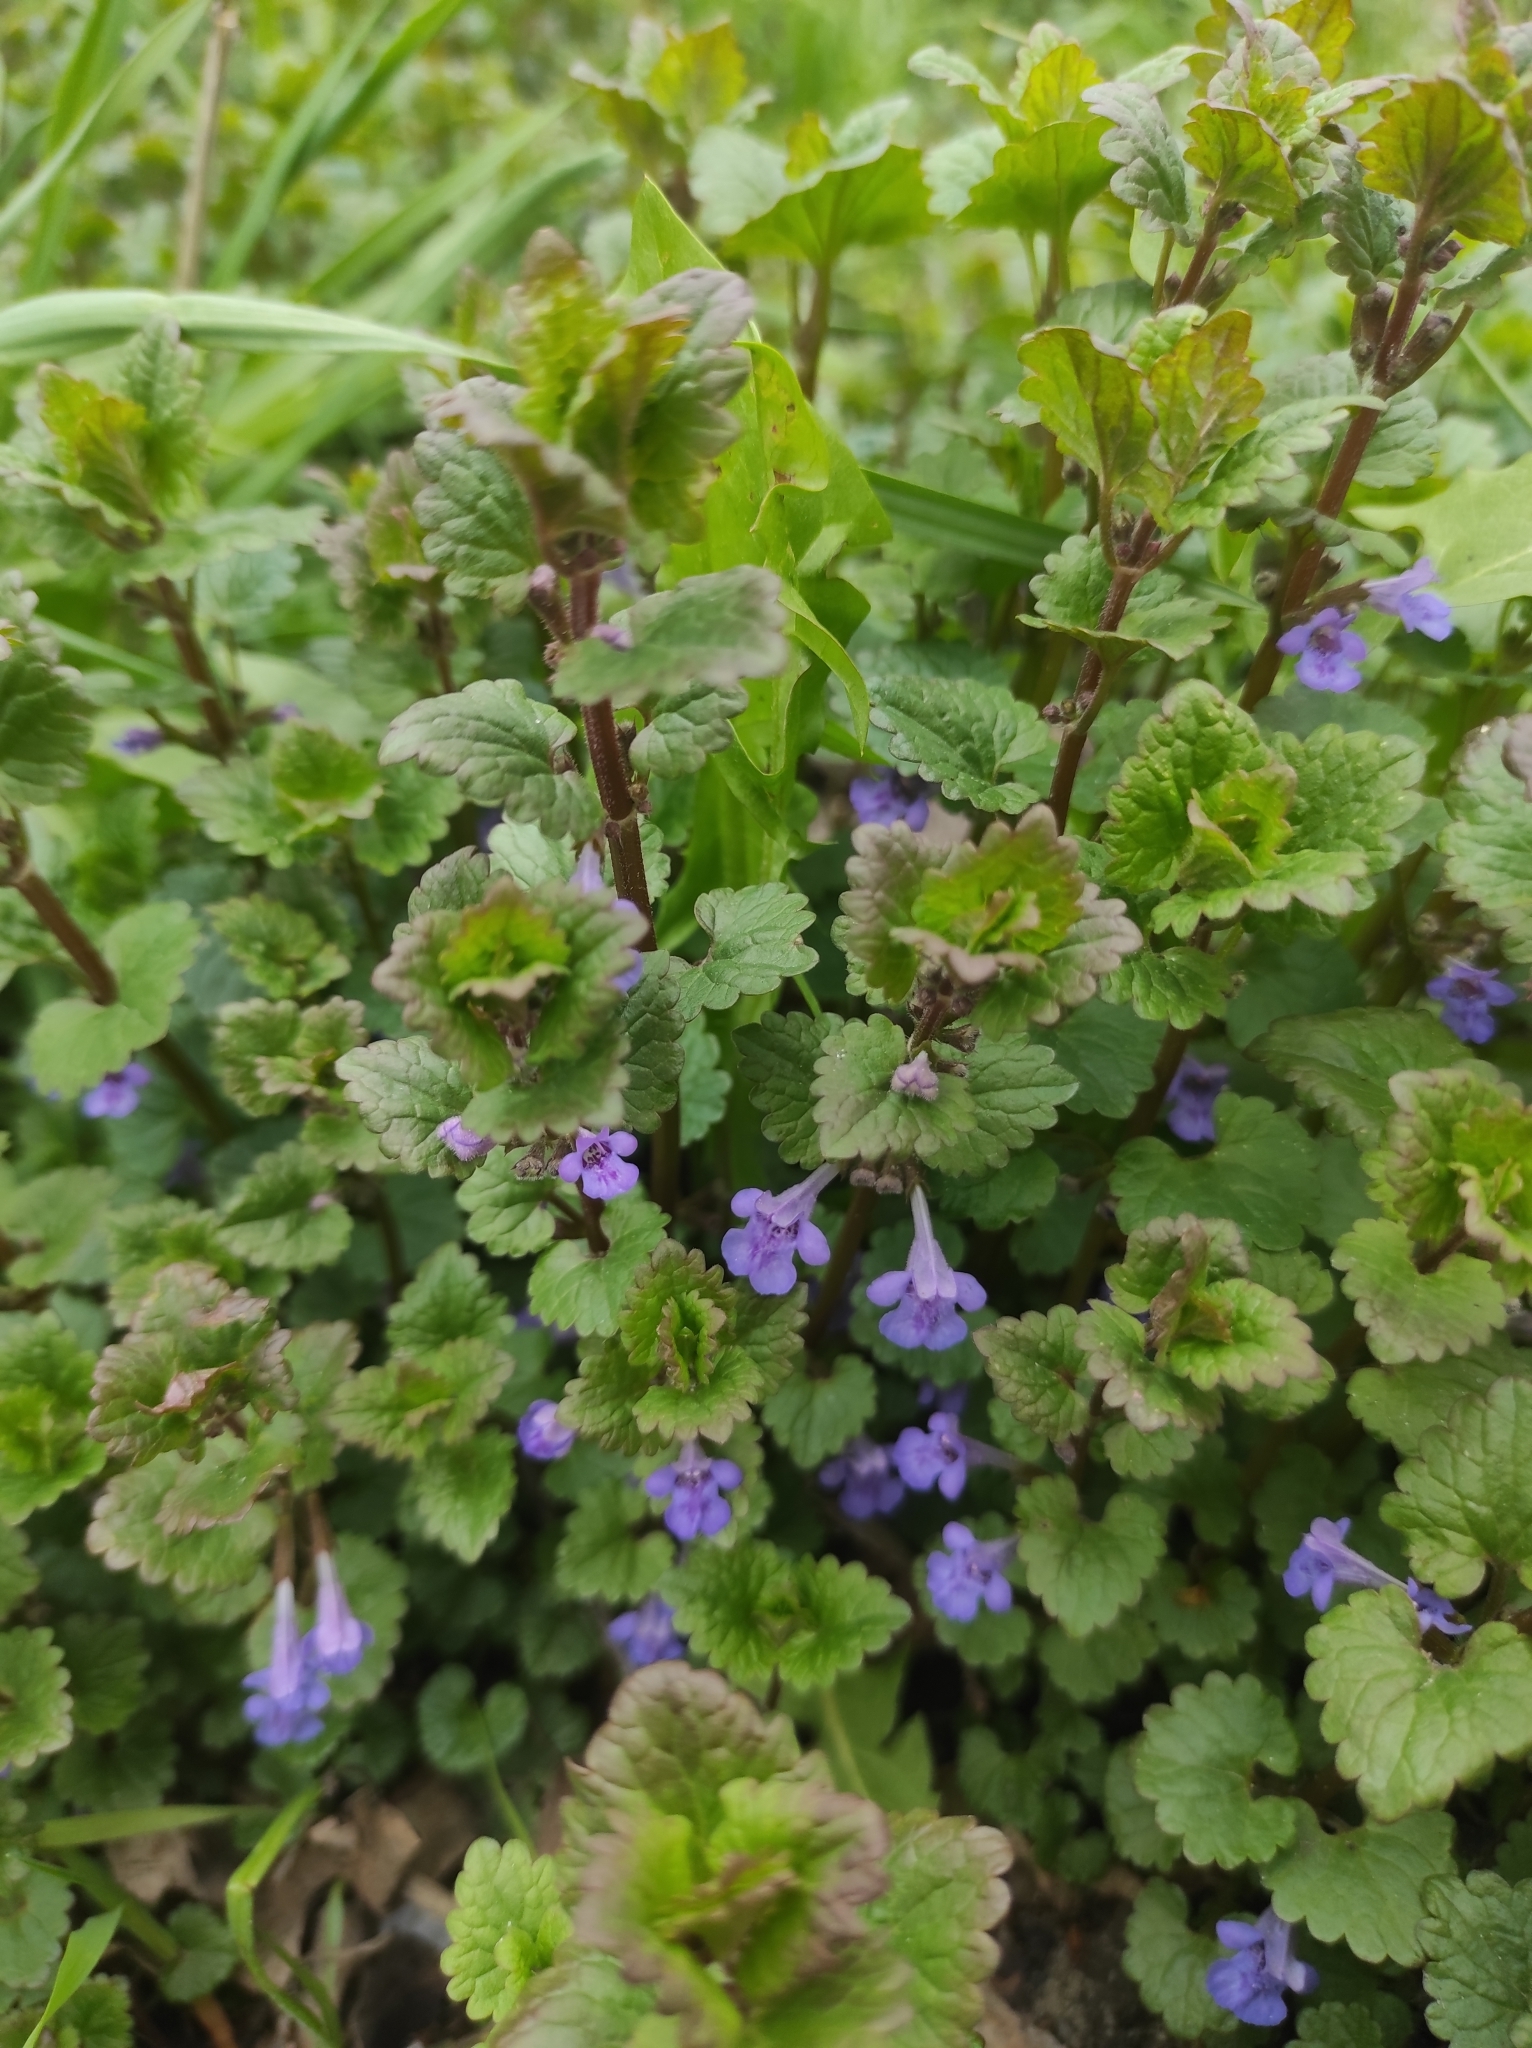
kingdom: Plantae
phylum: Tracheophyta
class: Magnoliopsida
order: Lamiales
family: Lamiaceae
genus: Glechoma
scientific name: Glechoma hederacea
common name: Ground ivy
